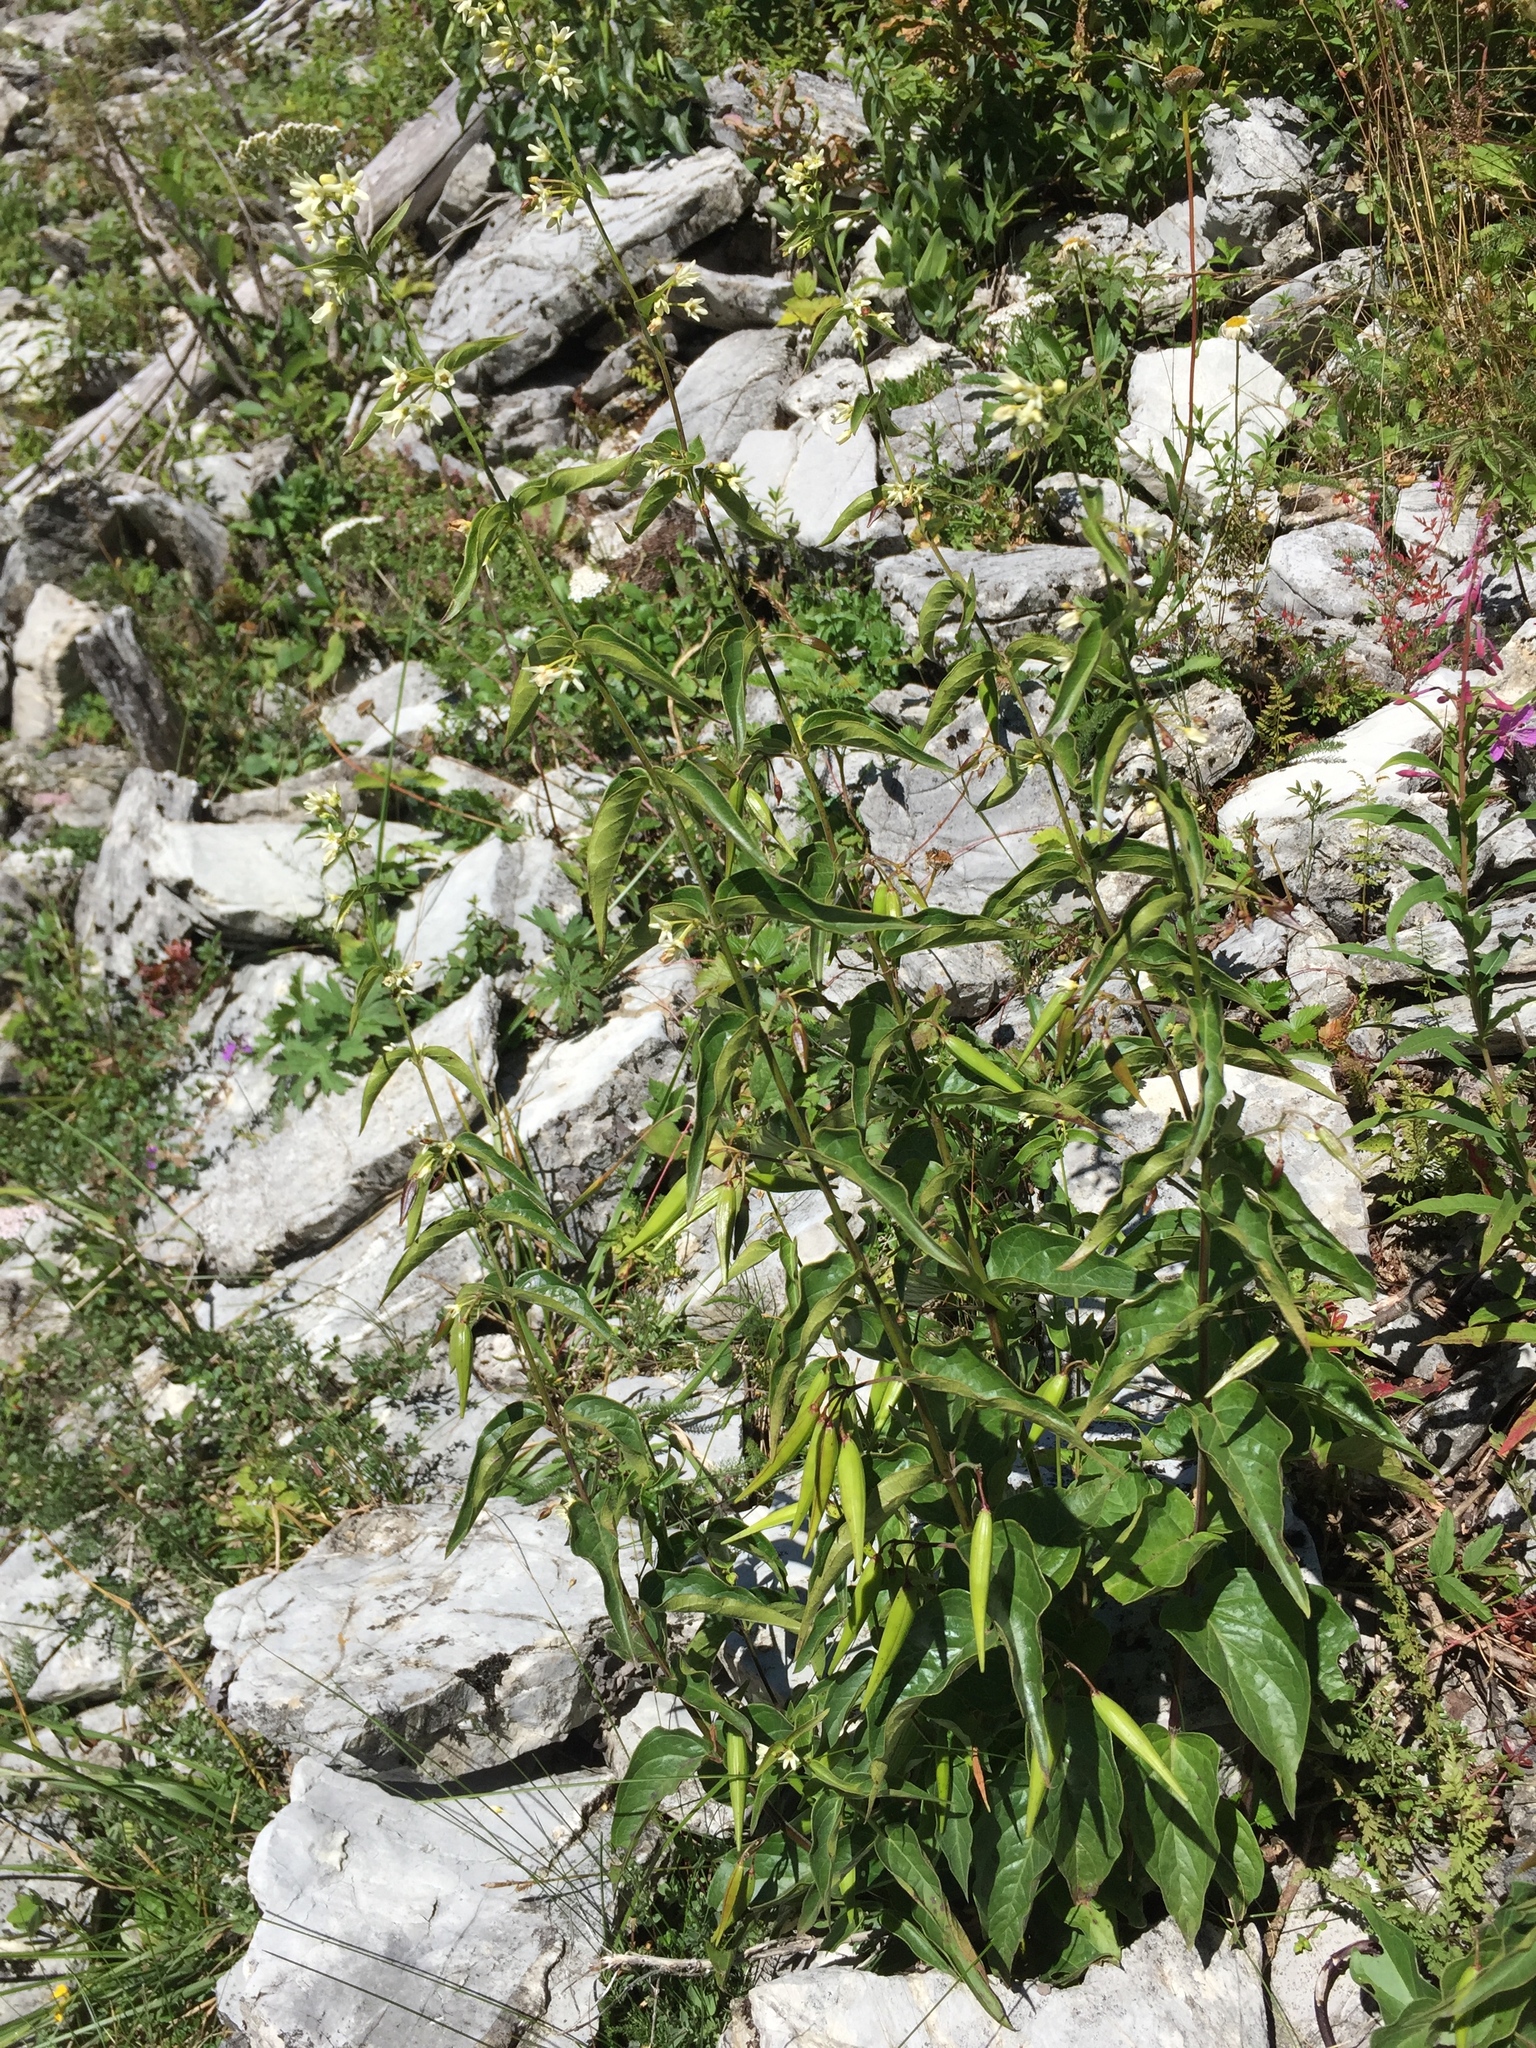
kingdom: Plantae
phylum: Tracheophyta
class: Magnoliopsida
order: Gentianales
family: Apocynaceae
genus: Vincetoxicum
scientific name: Vincetoxicum hirundinaria
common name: White swallowwort
